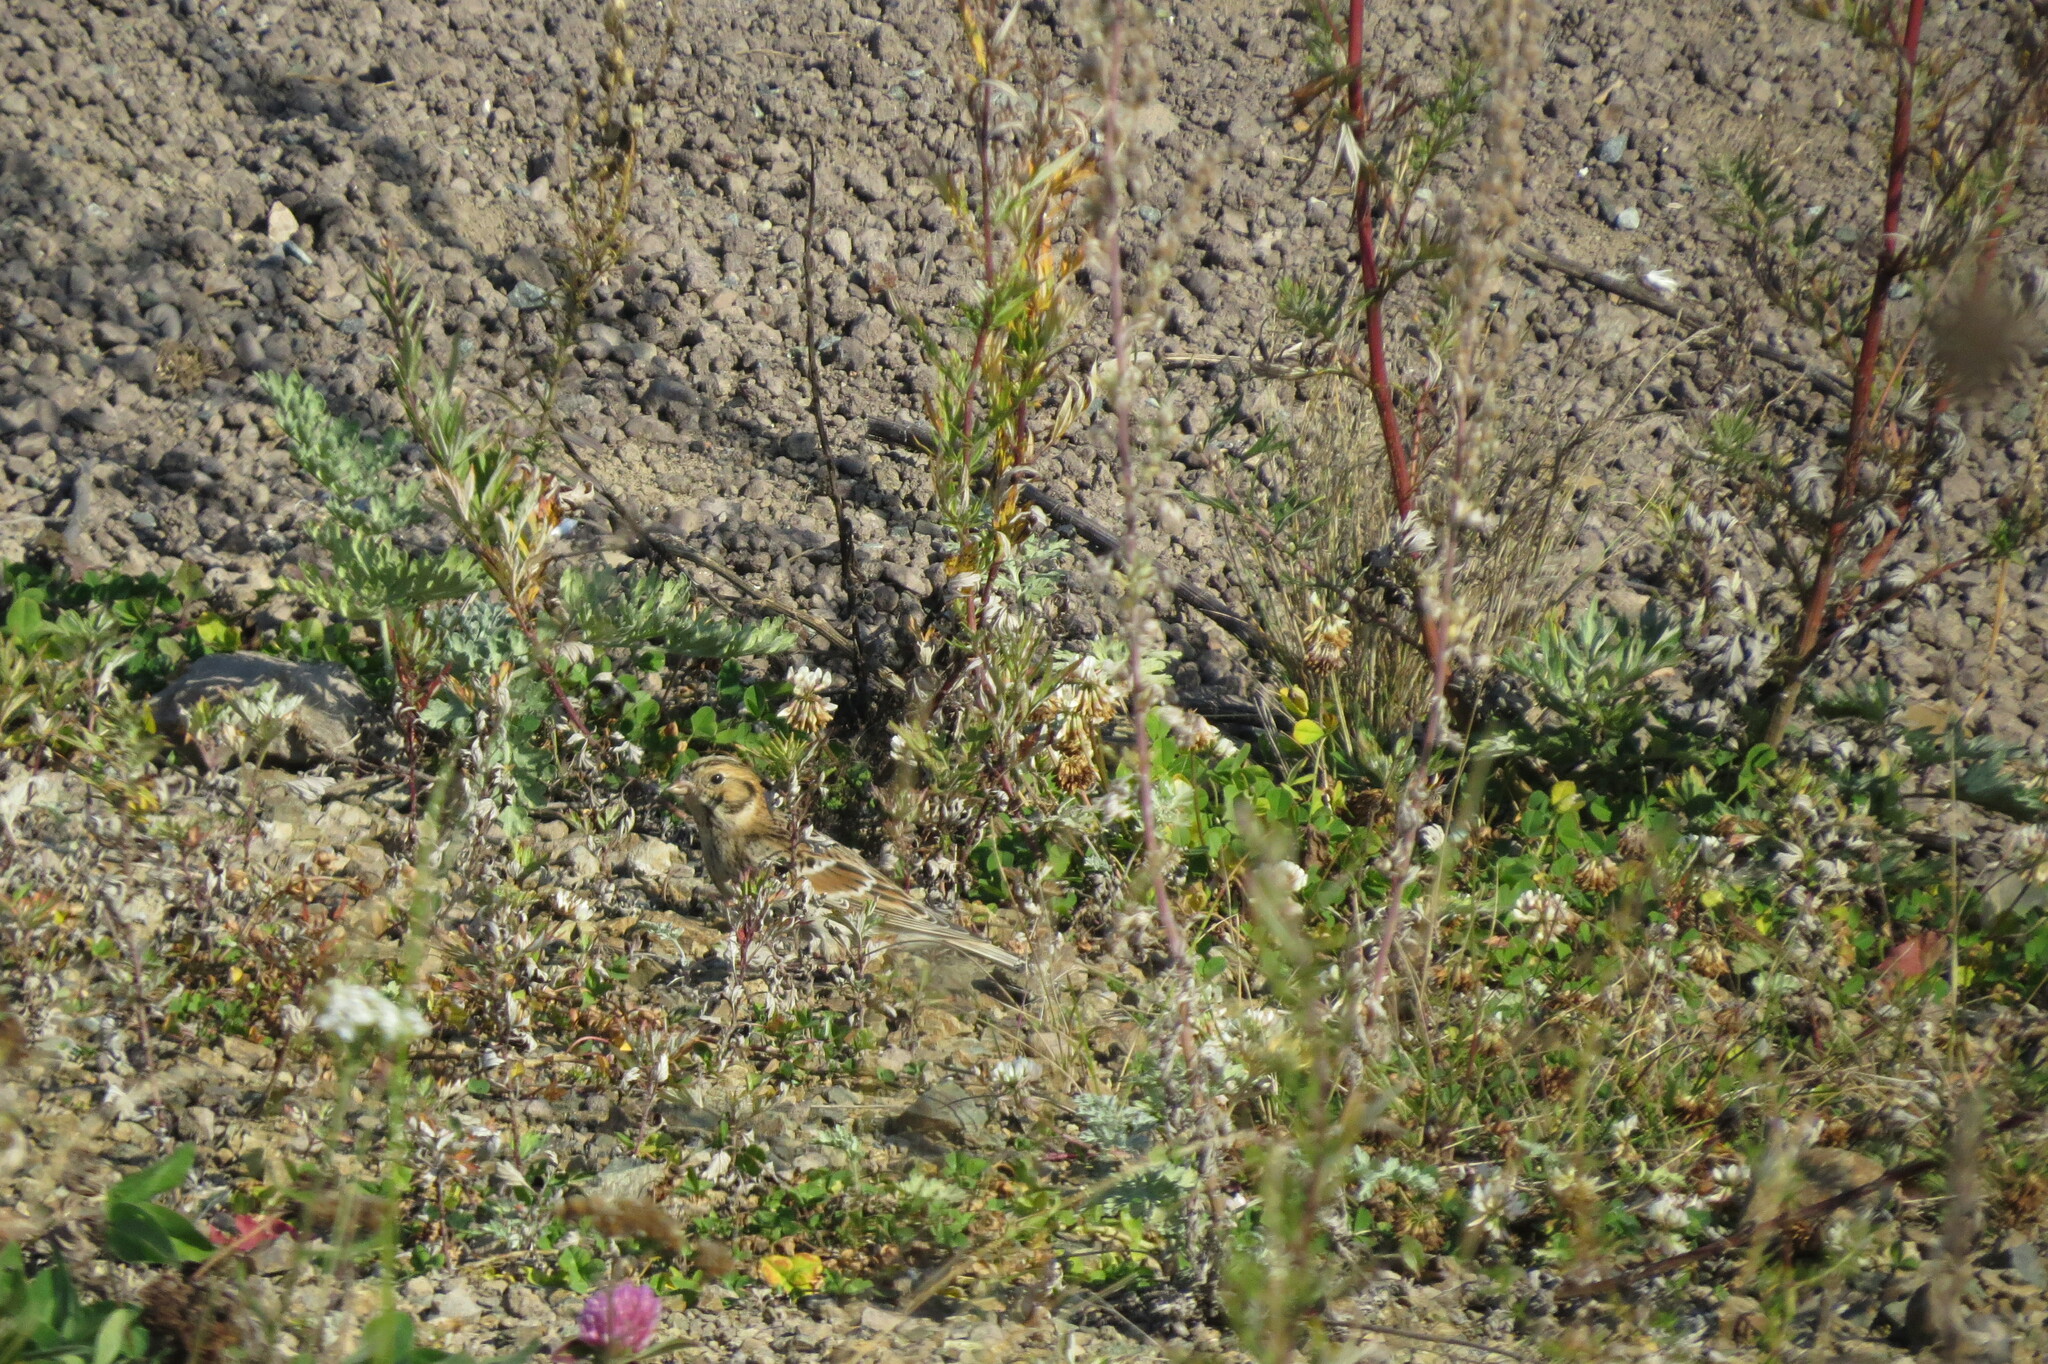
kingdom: Animalia
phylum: Chordata
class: Aves
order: Passeriformes
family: Calcariidae
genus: Calcarius
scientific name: Calcarius lapponicus
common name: Lapland longspur
